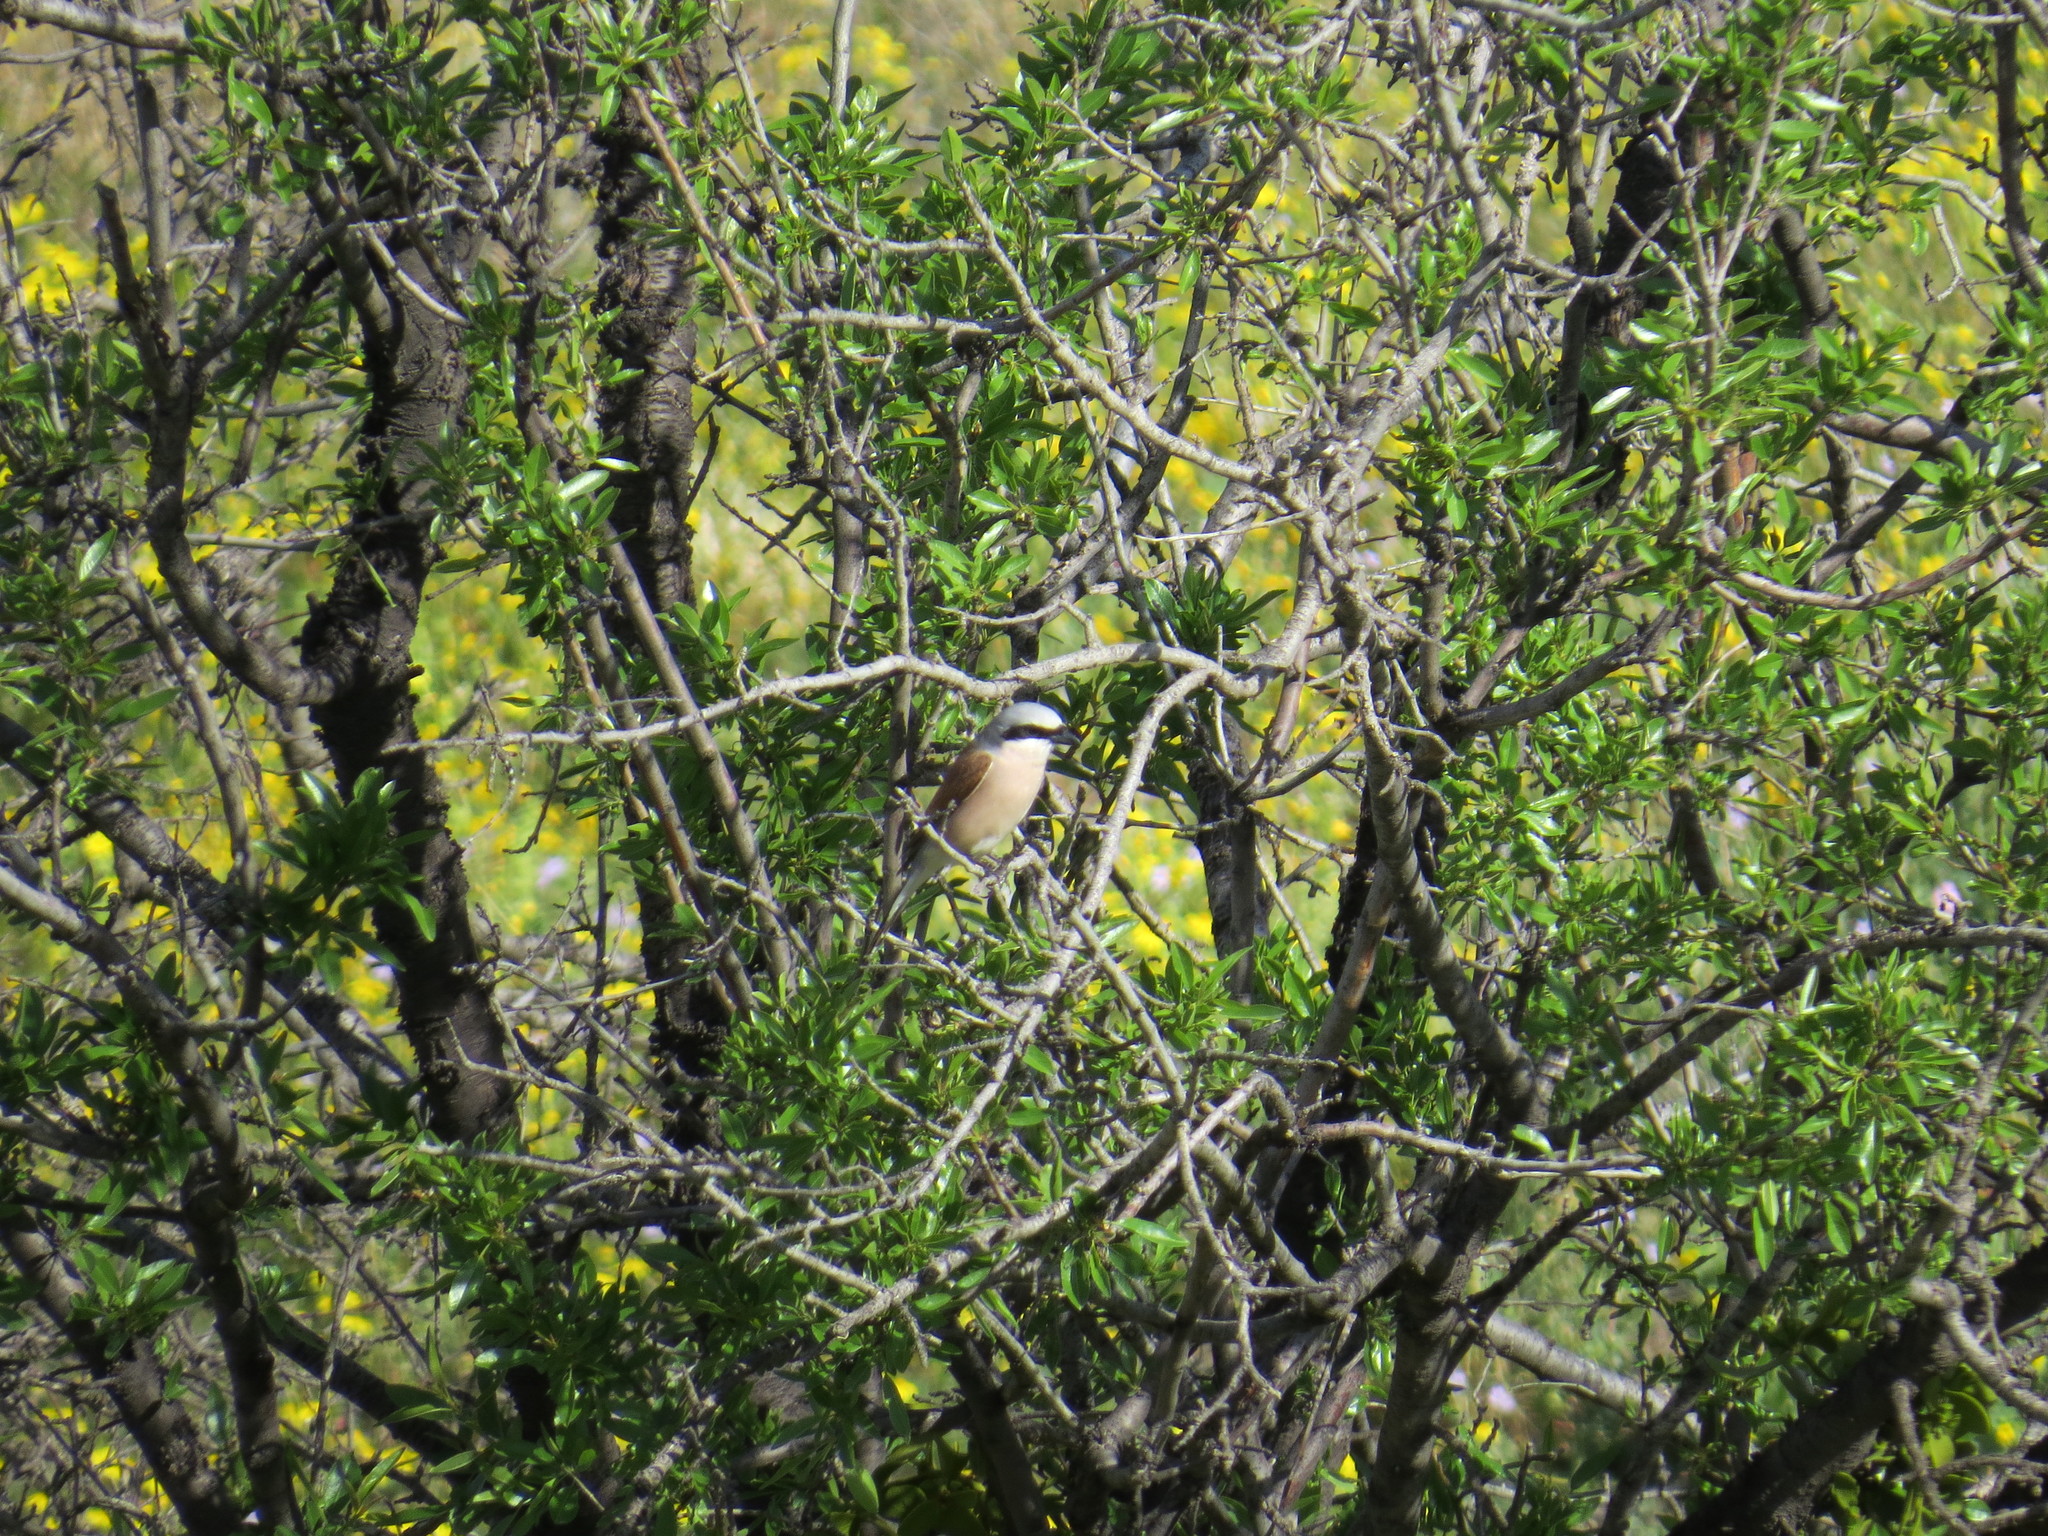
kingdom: Animalia
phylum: Chordata
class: Aves
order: Passeriformes
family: Laniidae
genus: Lanius
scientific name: Lanius collurio
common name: Red-backed shrike
